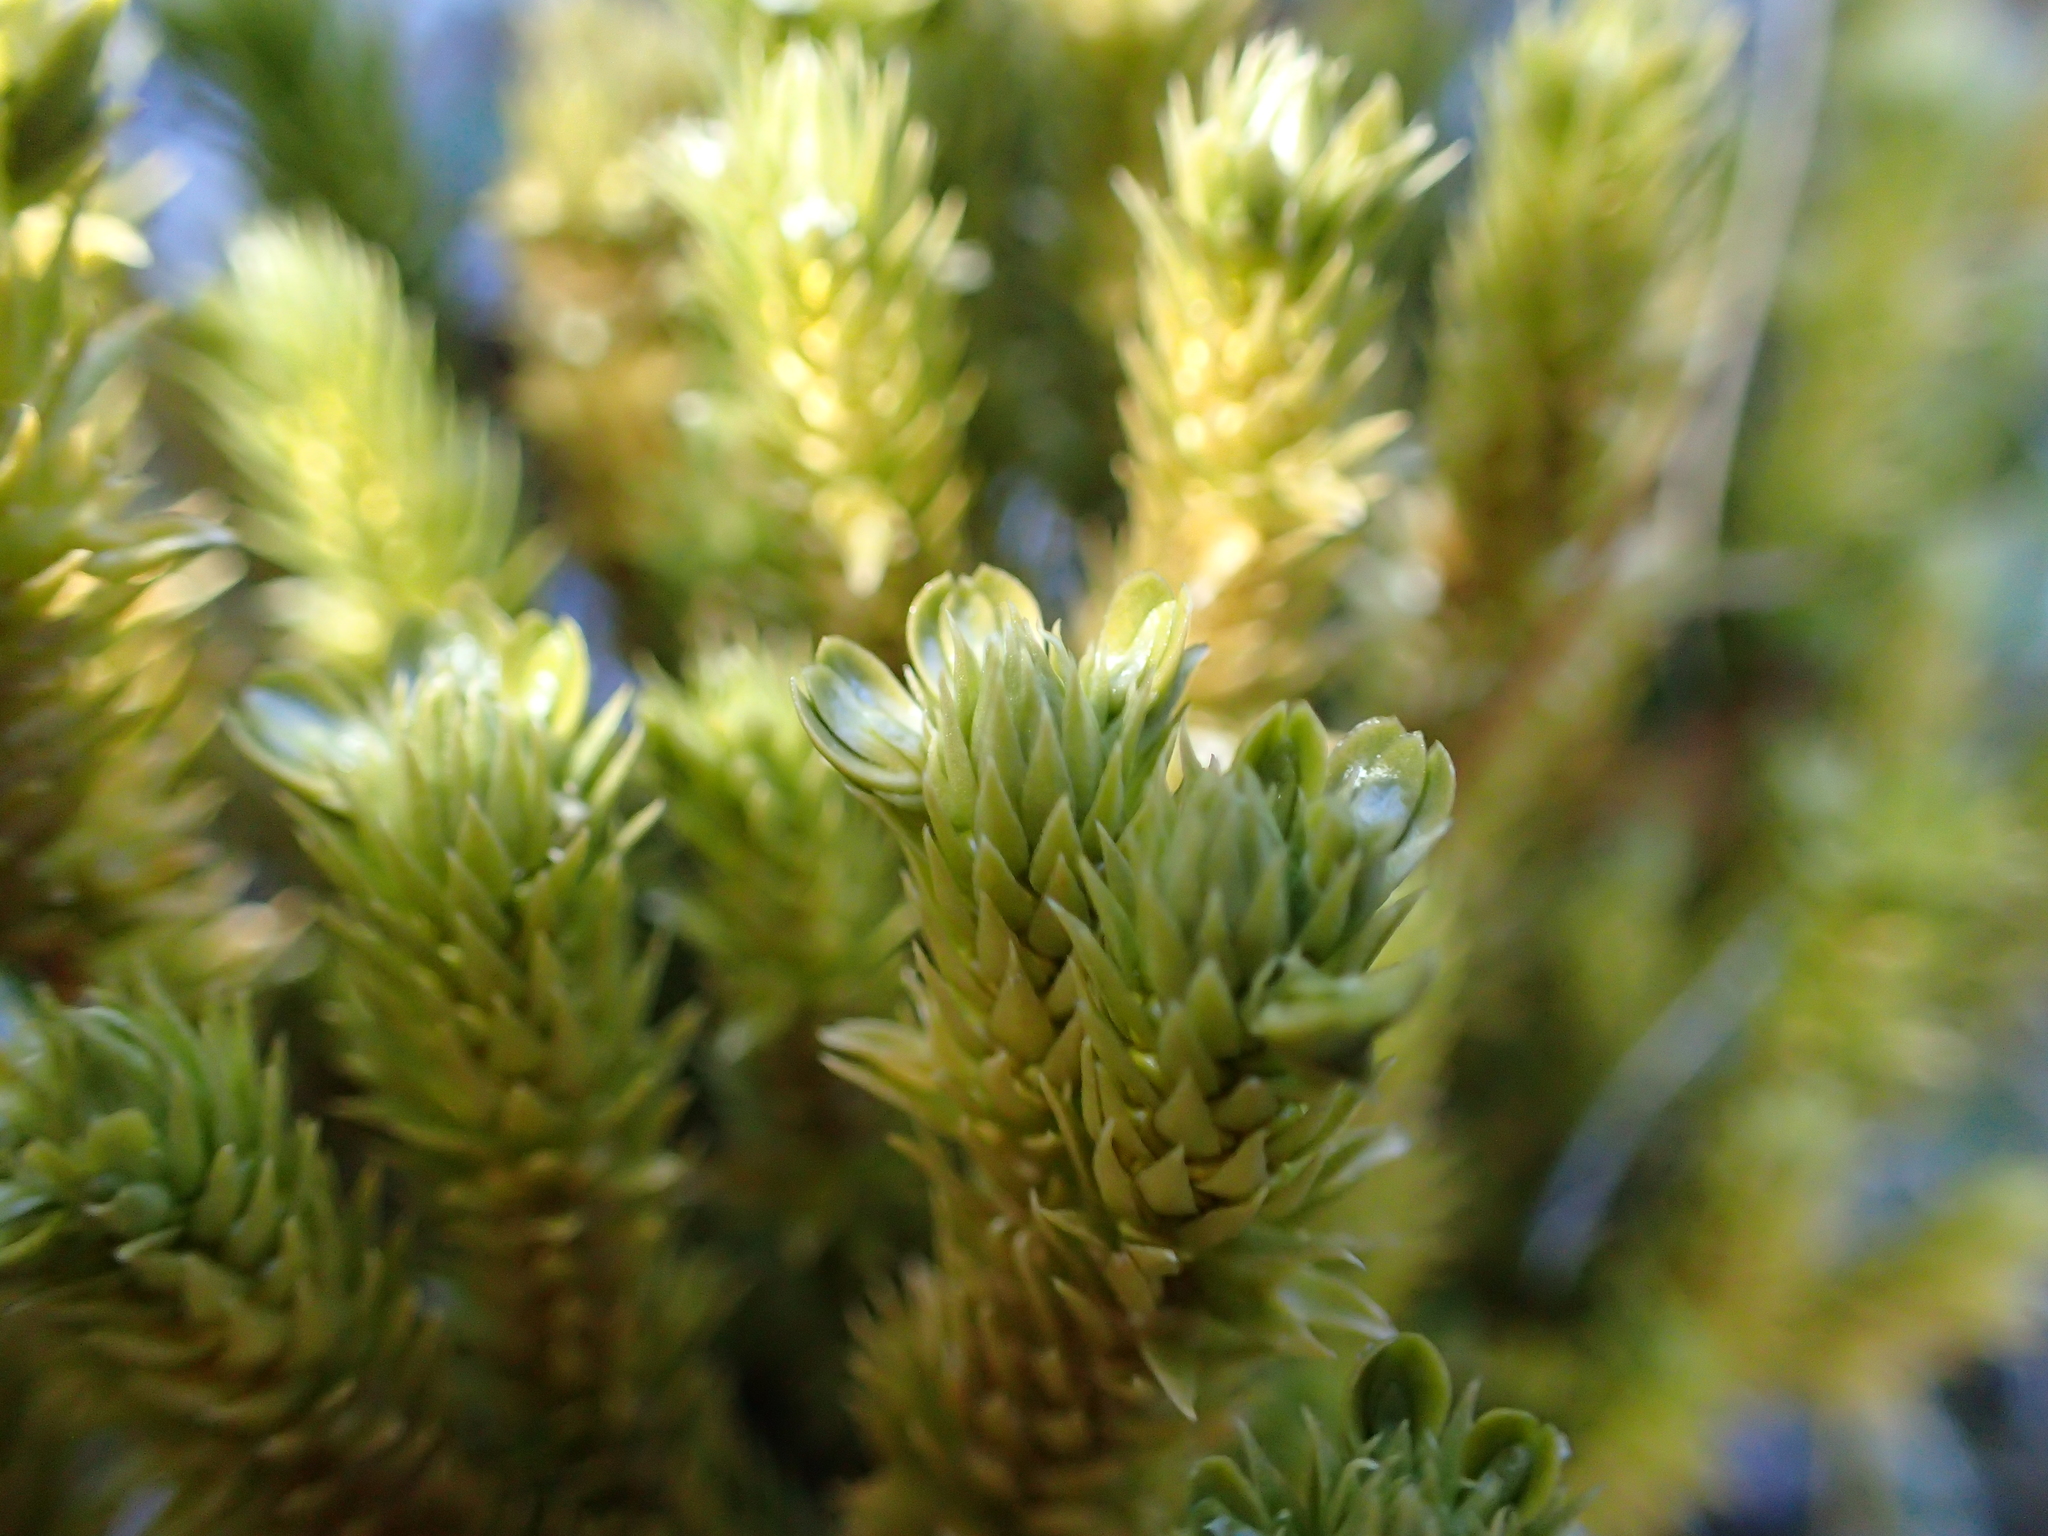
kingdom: Plantae
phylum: Tracheophyta
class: Lycopodiopsida
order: Lycopodiales
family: Lycopodiaceae
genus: Huperzia
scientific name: Huperzia selago
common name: Northern firmoss
